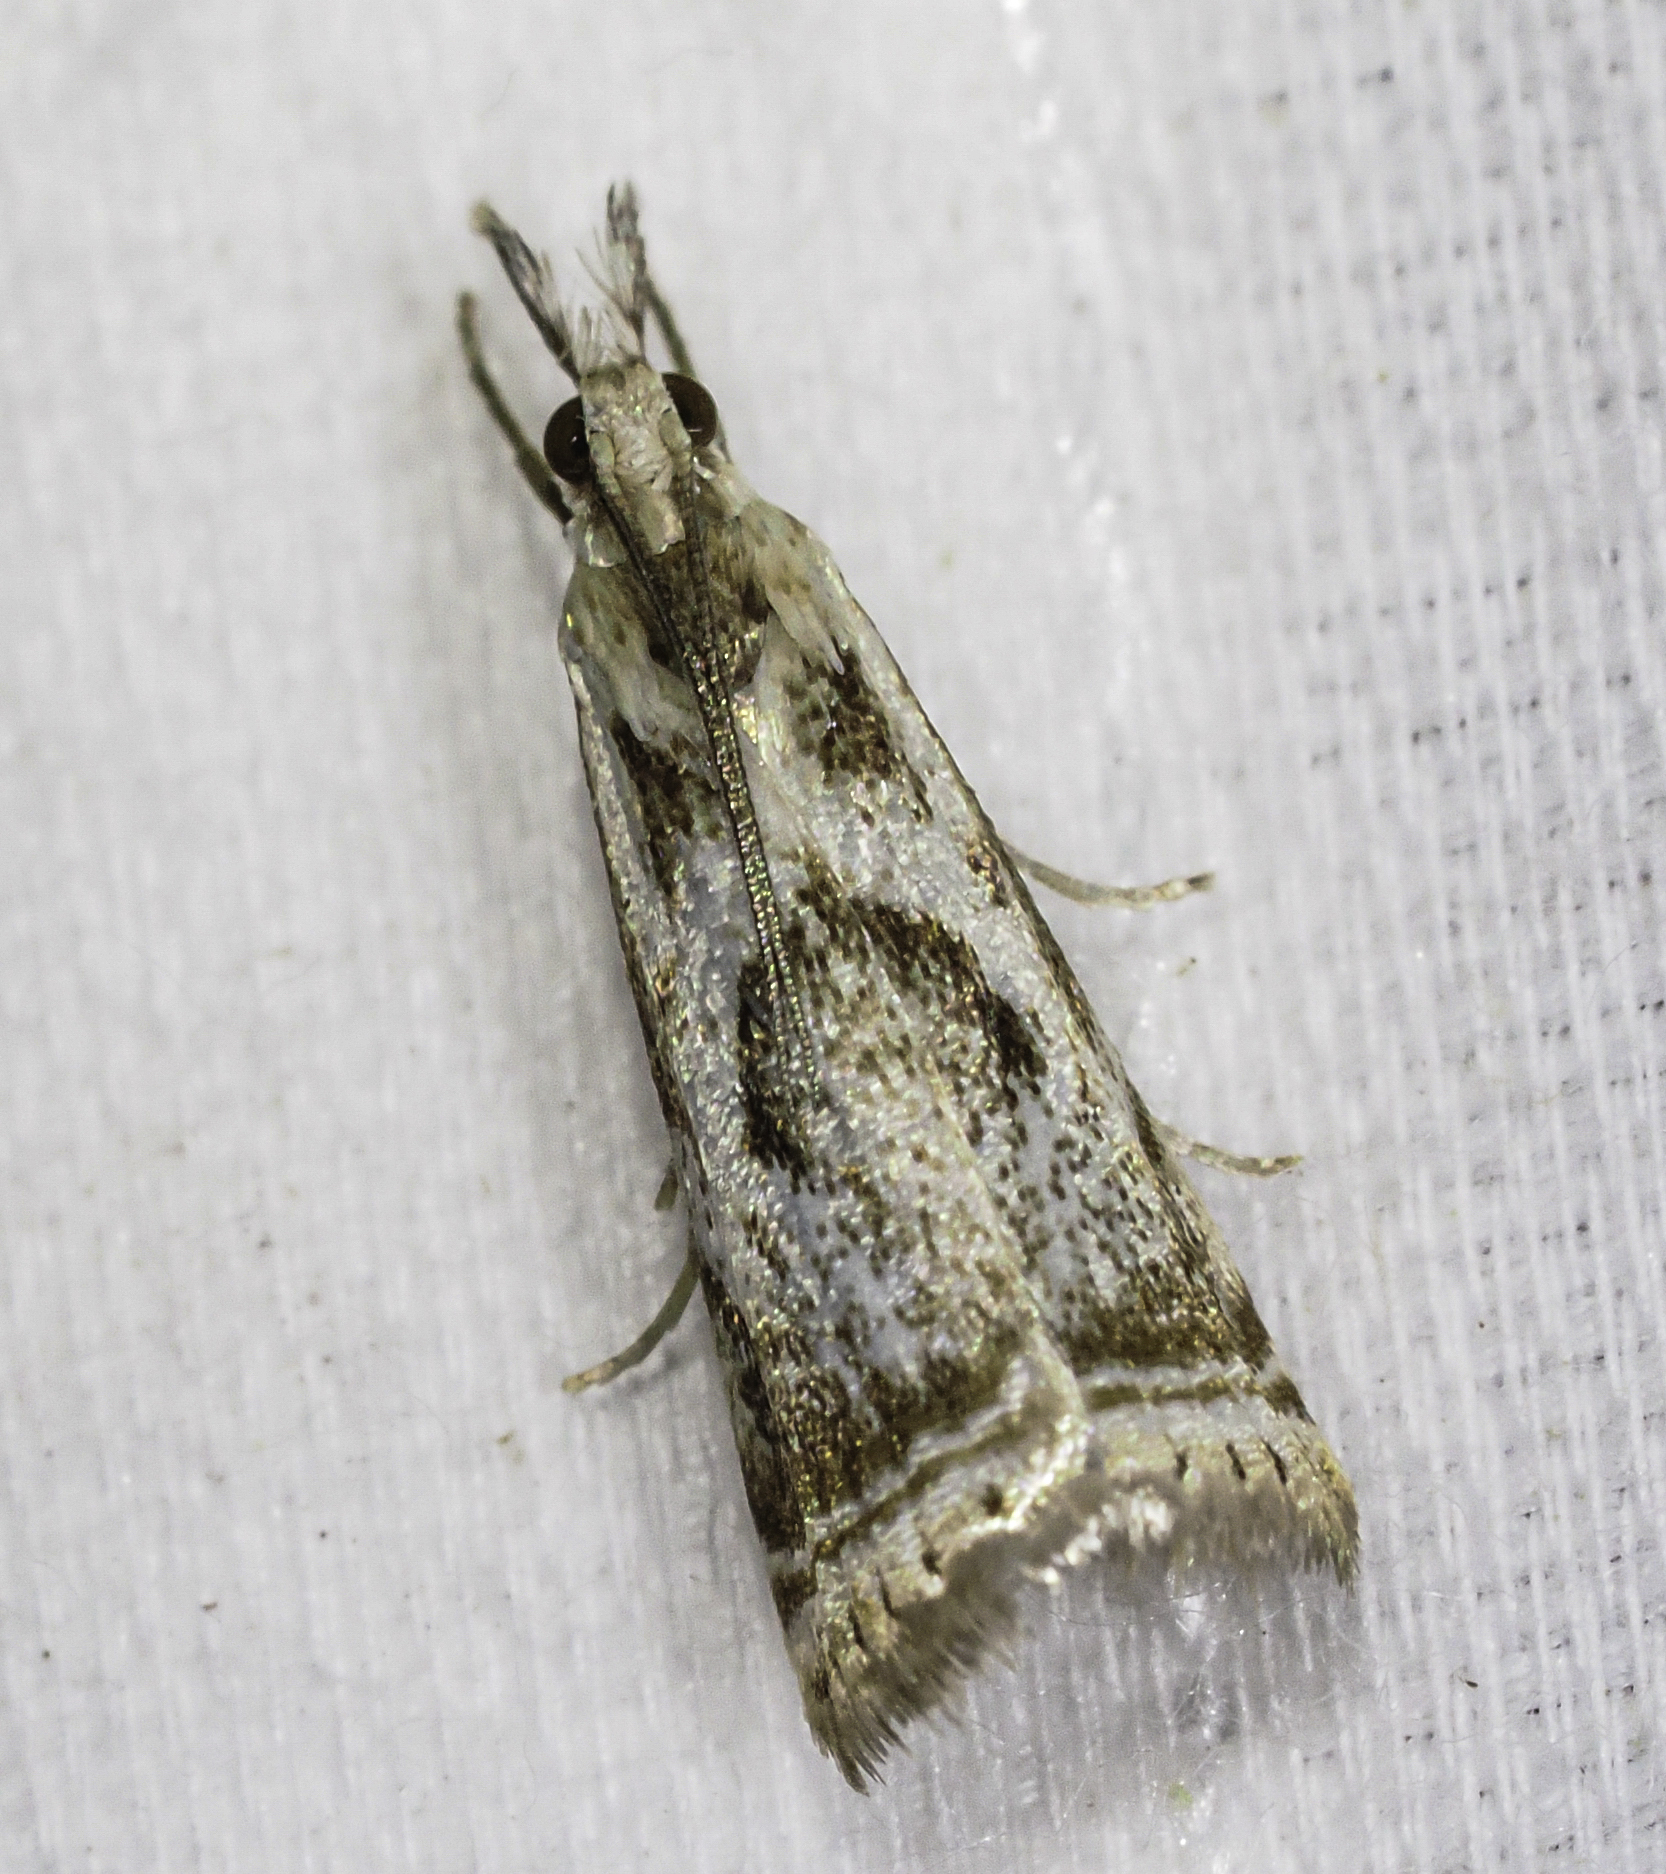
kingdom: Animalia
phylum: Arthropoda
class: Insecta
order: Lepidoptera
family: Crambidae
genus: Microcrambus
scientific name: Microcrambus elegans
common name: Elegant grass-veneer
